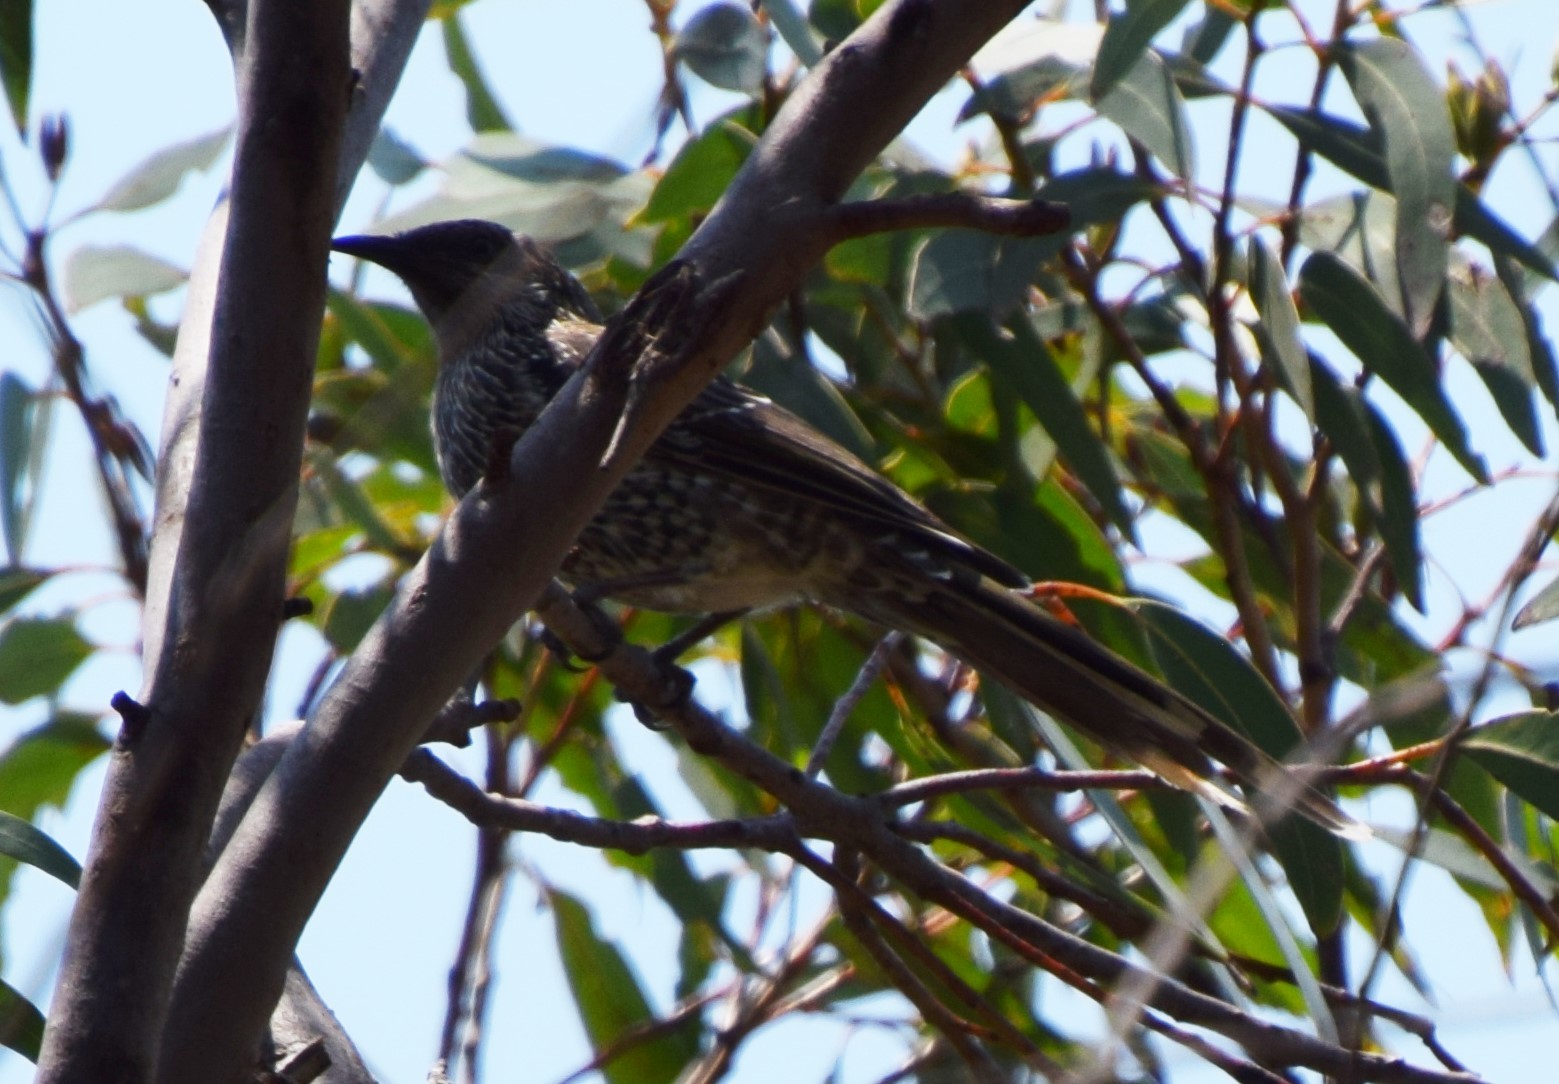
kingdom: Animalia
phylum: Chordata
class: Aves
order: Passeriformes
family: Meliphagidae
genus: Anthochaera
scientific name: Anthochaera chrysoptera
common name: Little wattlebird
